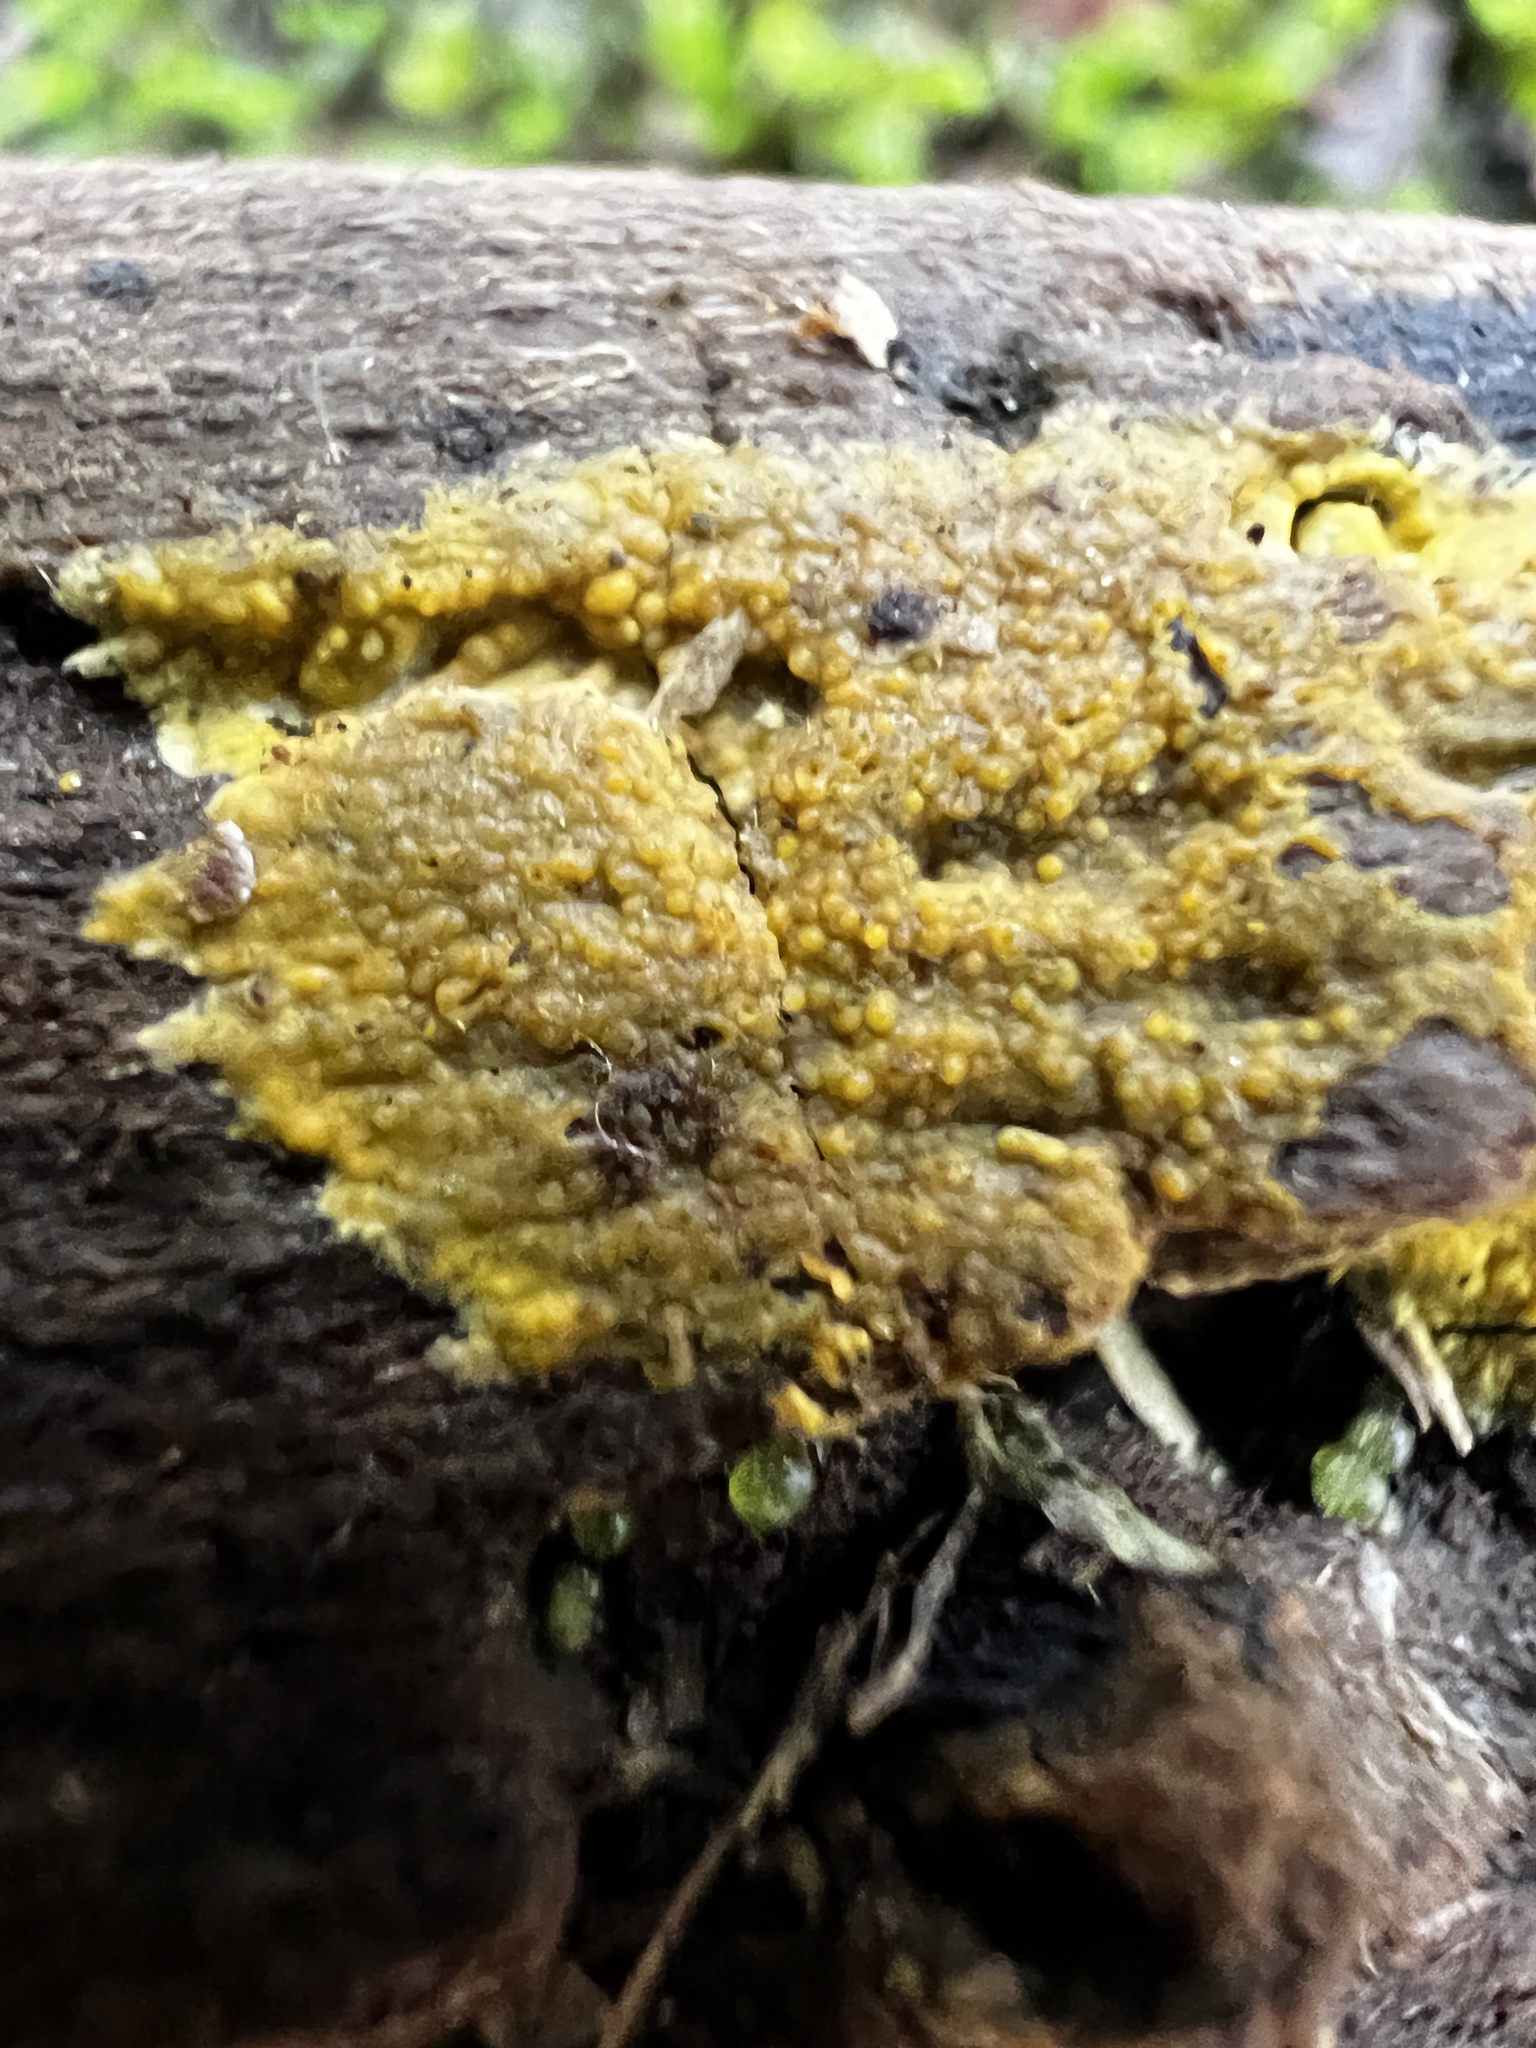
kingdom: Fungi
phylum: Basidiomycota
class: Agaricomycetes
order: Polyporales
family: Meruliaceae
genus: Phlebiodontia
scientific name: Phlebiodontia subochracea
